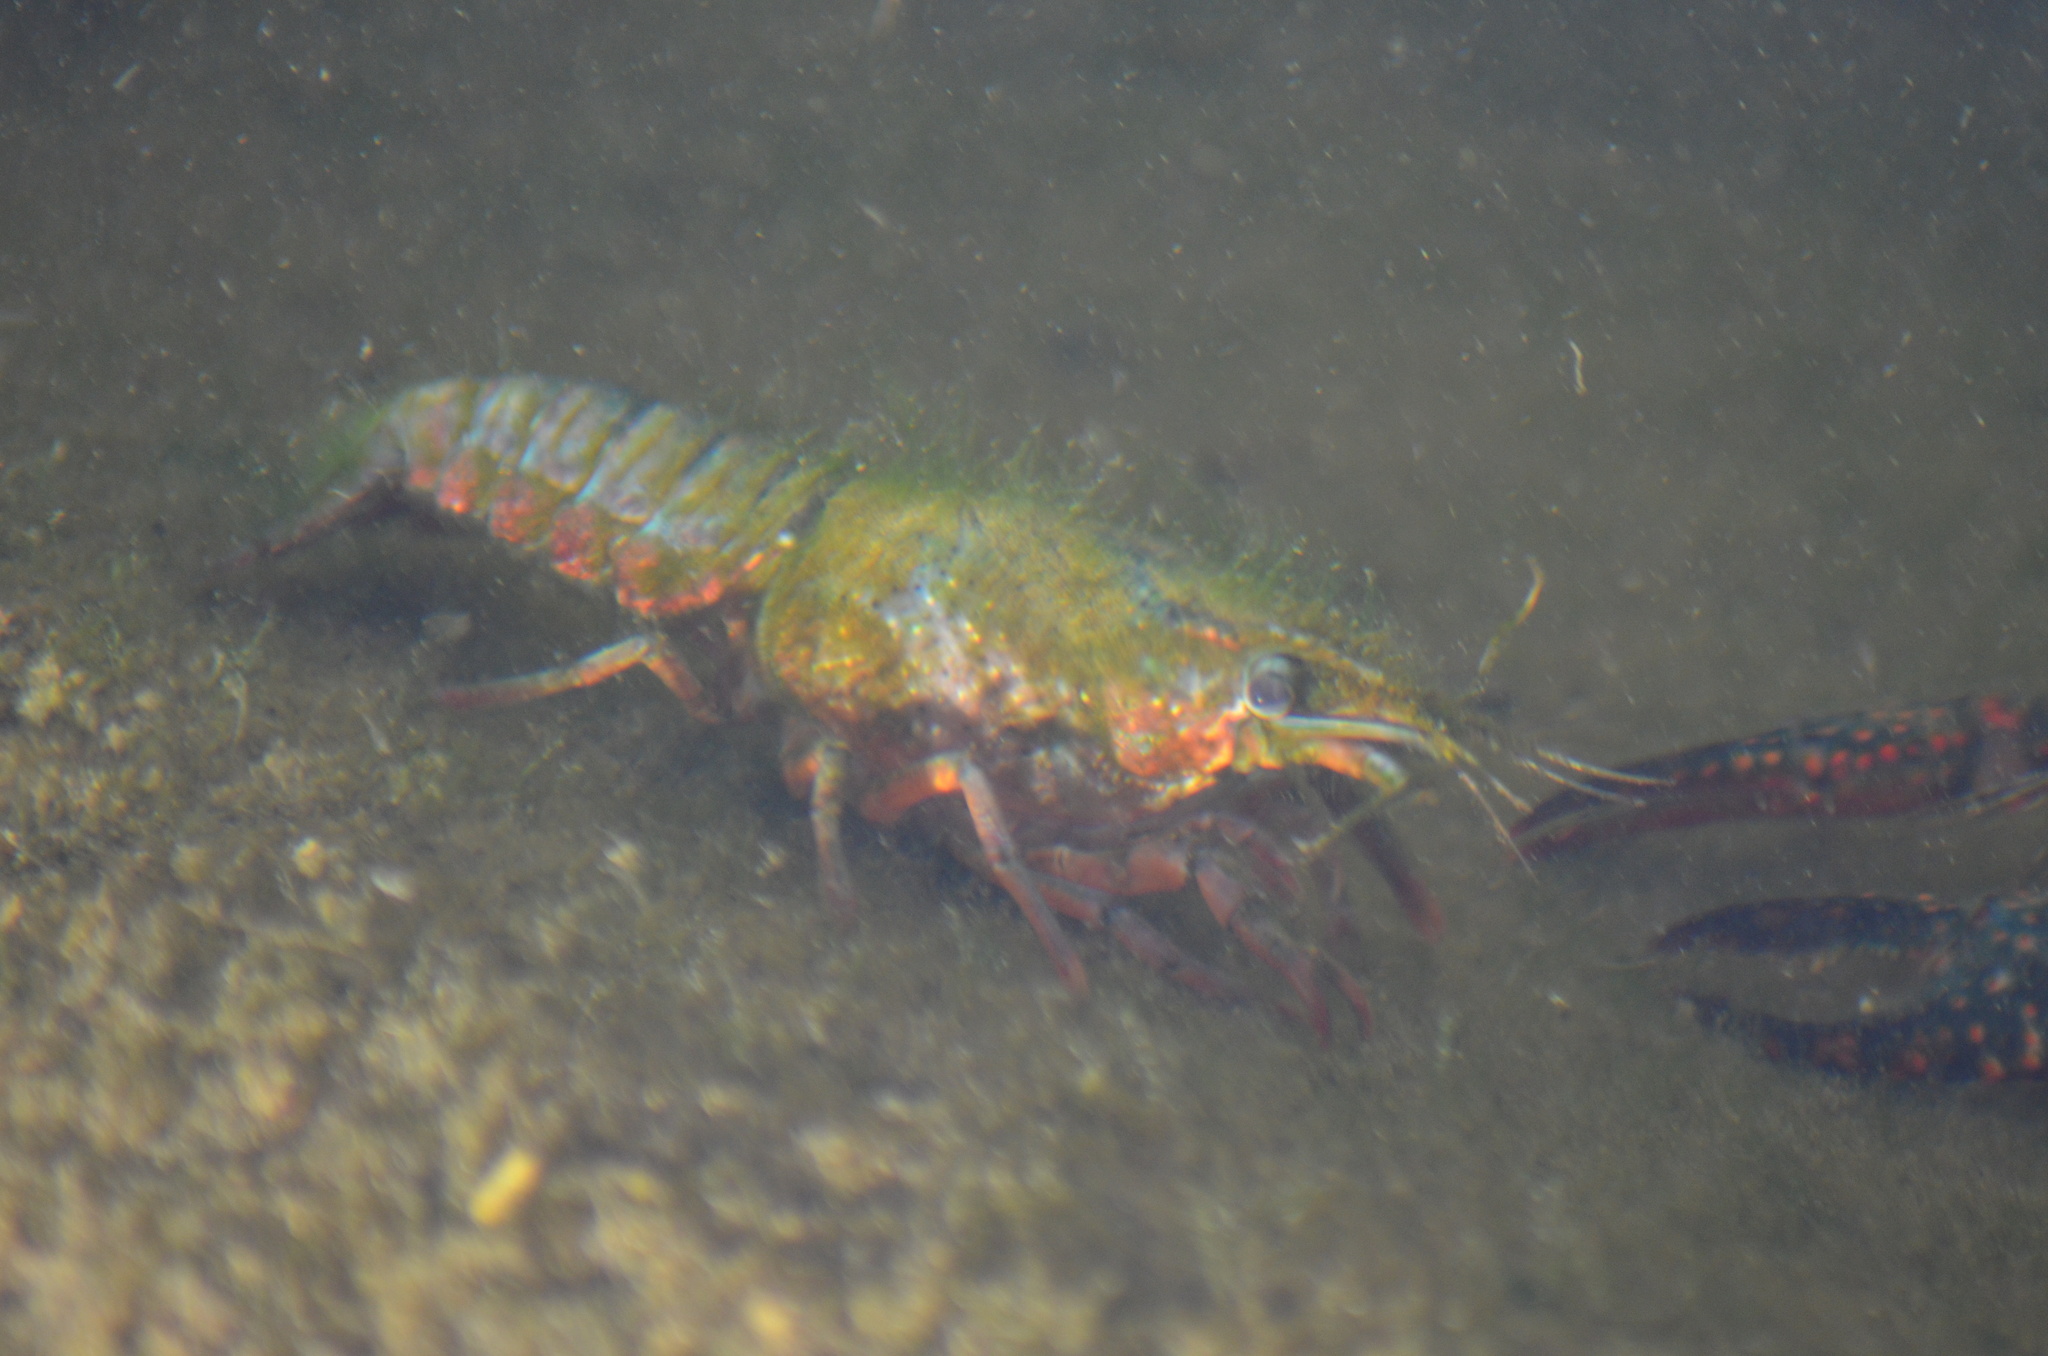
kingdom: Animalia
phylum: Arthropoda
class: Malacostraca
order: Decapoda
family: Cambaridae
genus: Procambarus
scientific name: Procambarus clarkii
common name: Red swamp crayfish
